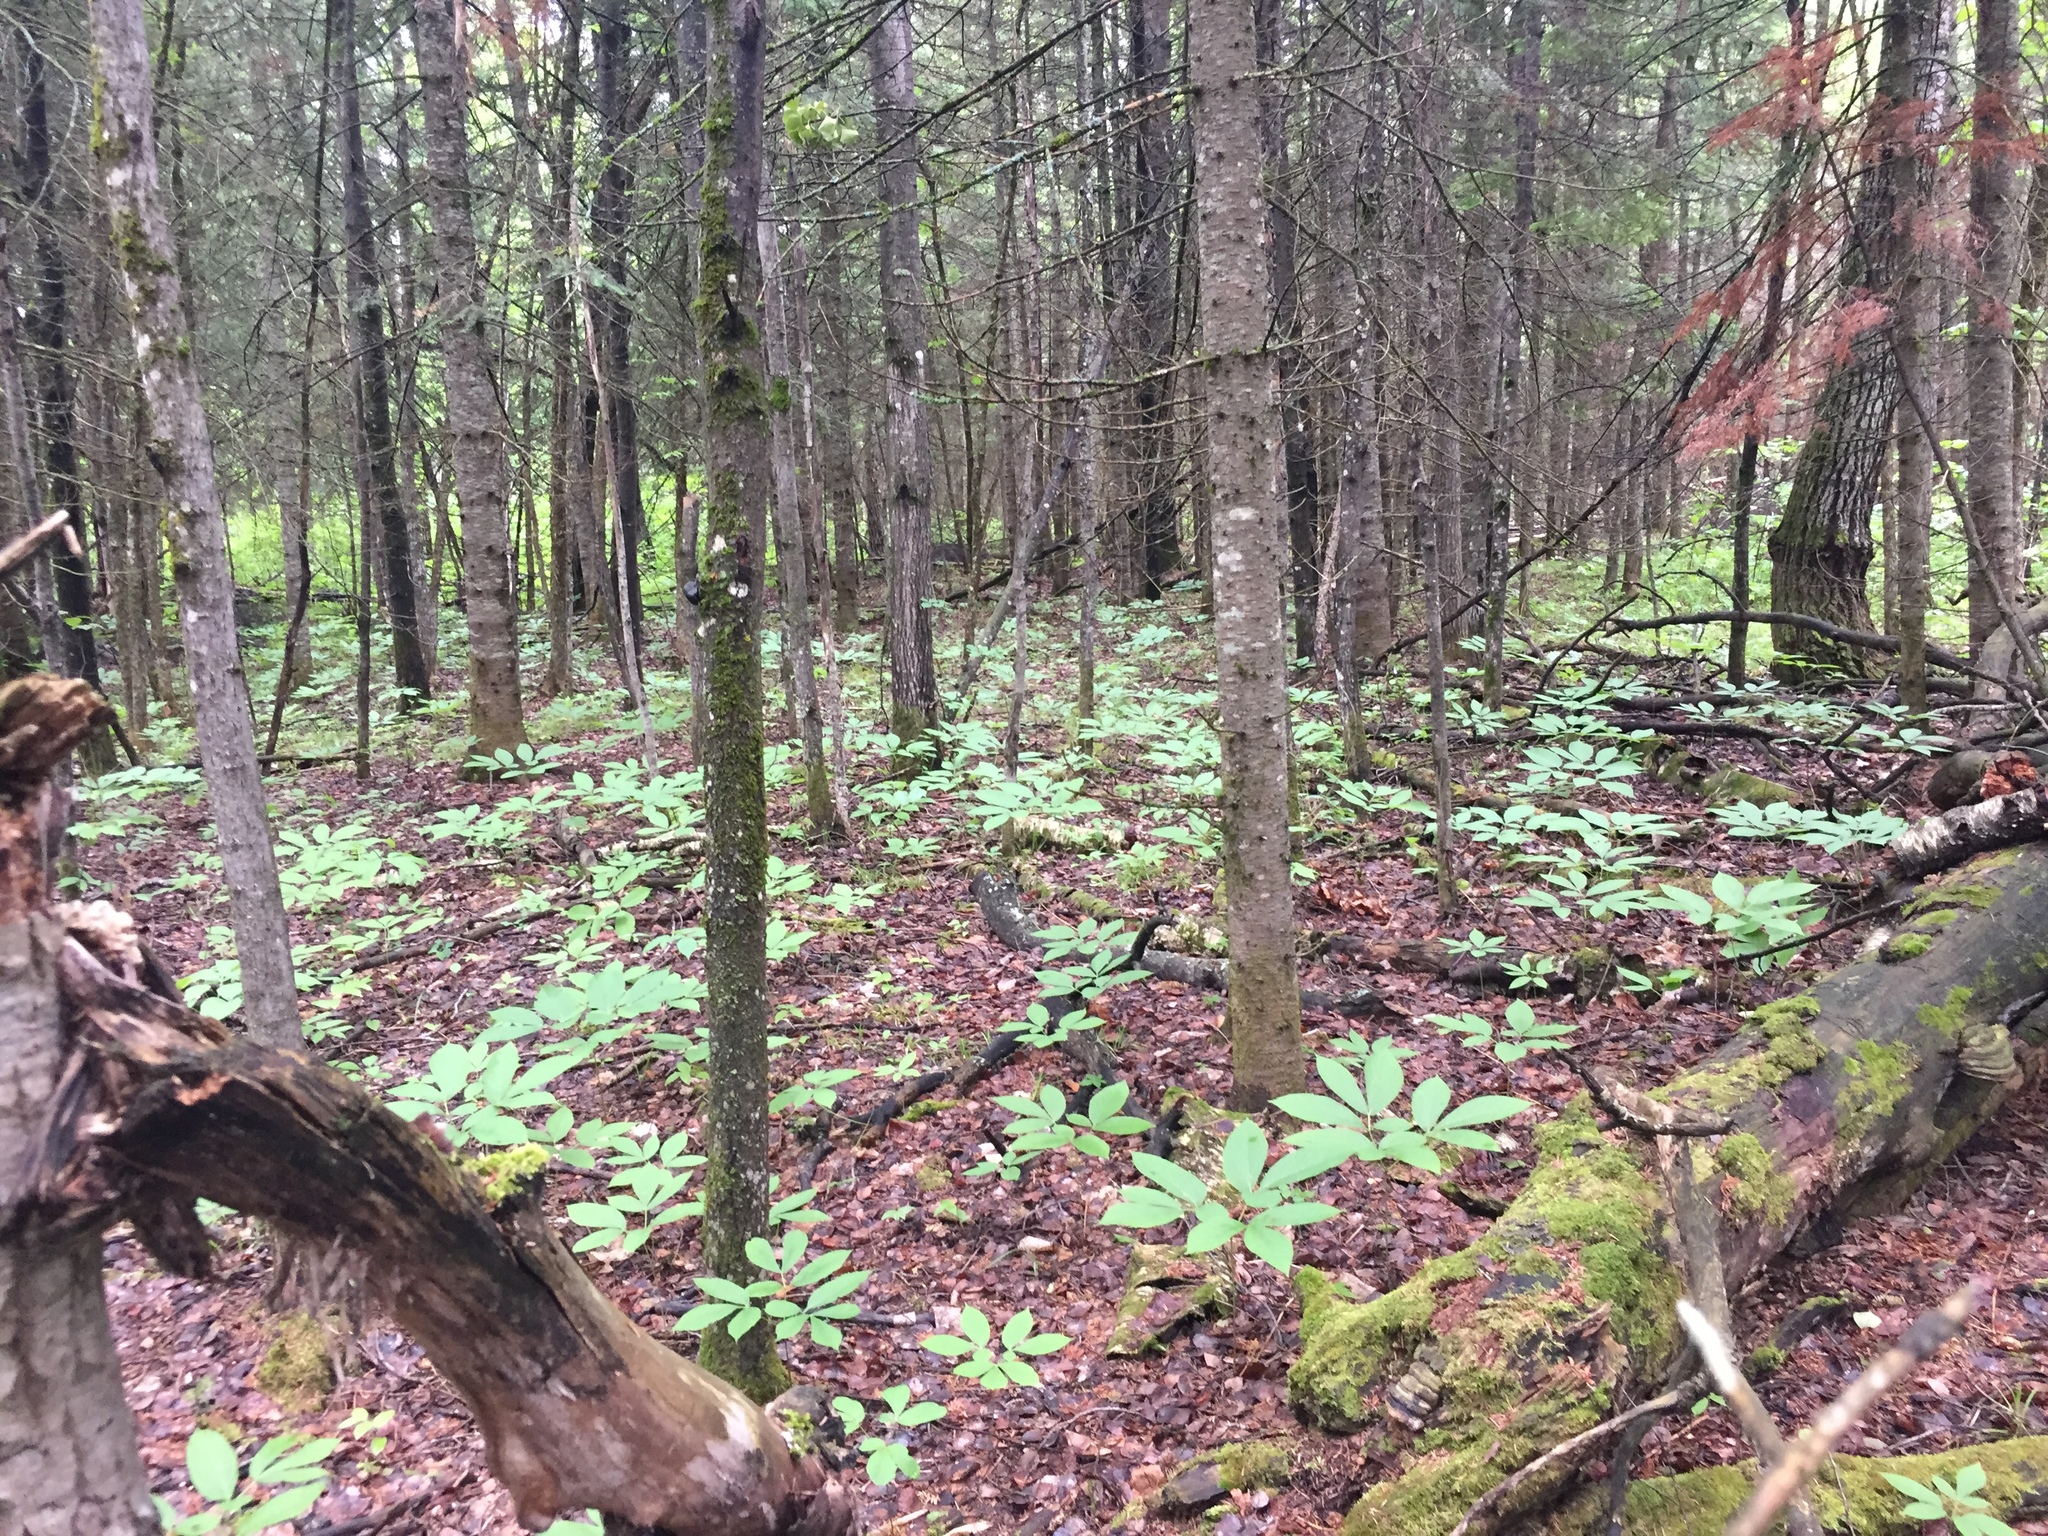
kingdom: Plantae
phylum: Tracheophyta
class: Pinopsida
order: Pinales
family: Pinaceae
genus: Picea
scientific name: Picea mariana
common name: Black spruce
